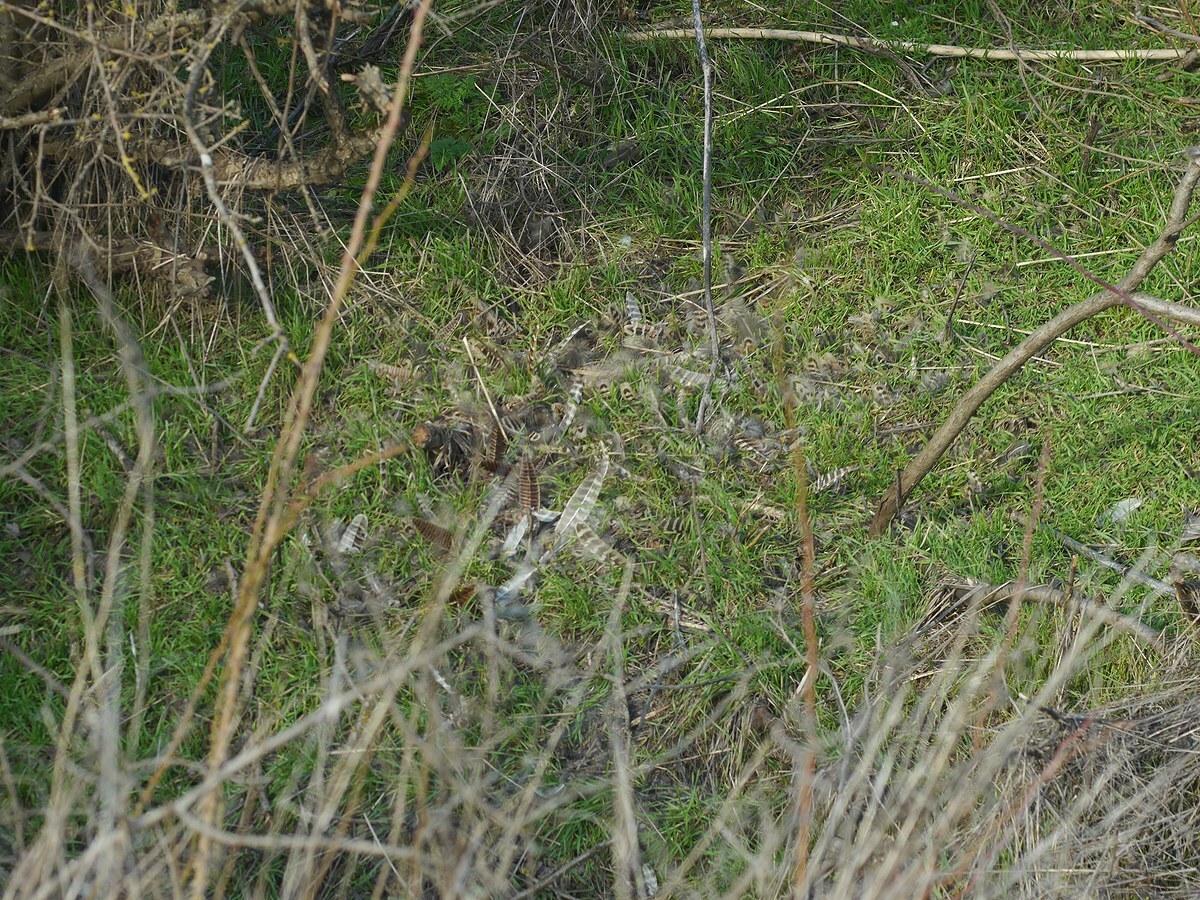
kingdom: Animalia
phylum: Chordata
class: Aves
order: Galliformes
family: Phasianidae
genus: Phasianus
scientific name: Phasianus colchicus
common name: Common pheasant
